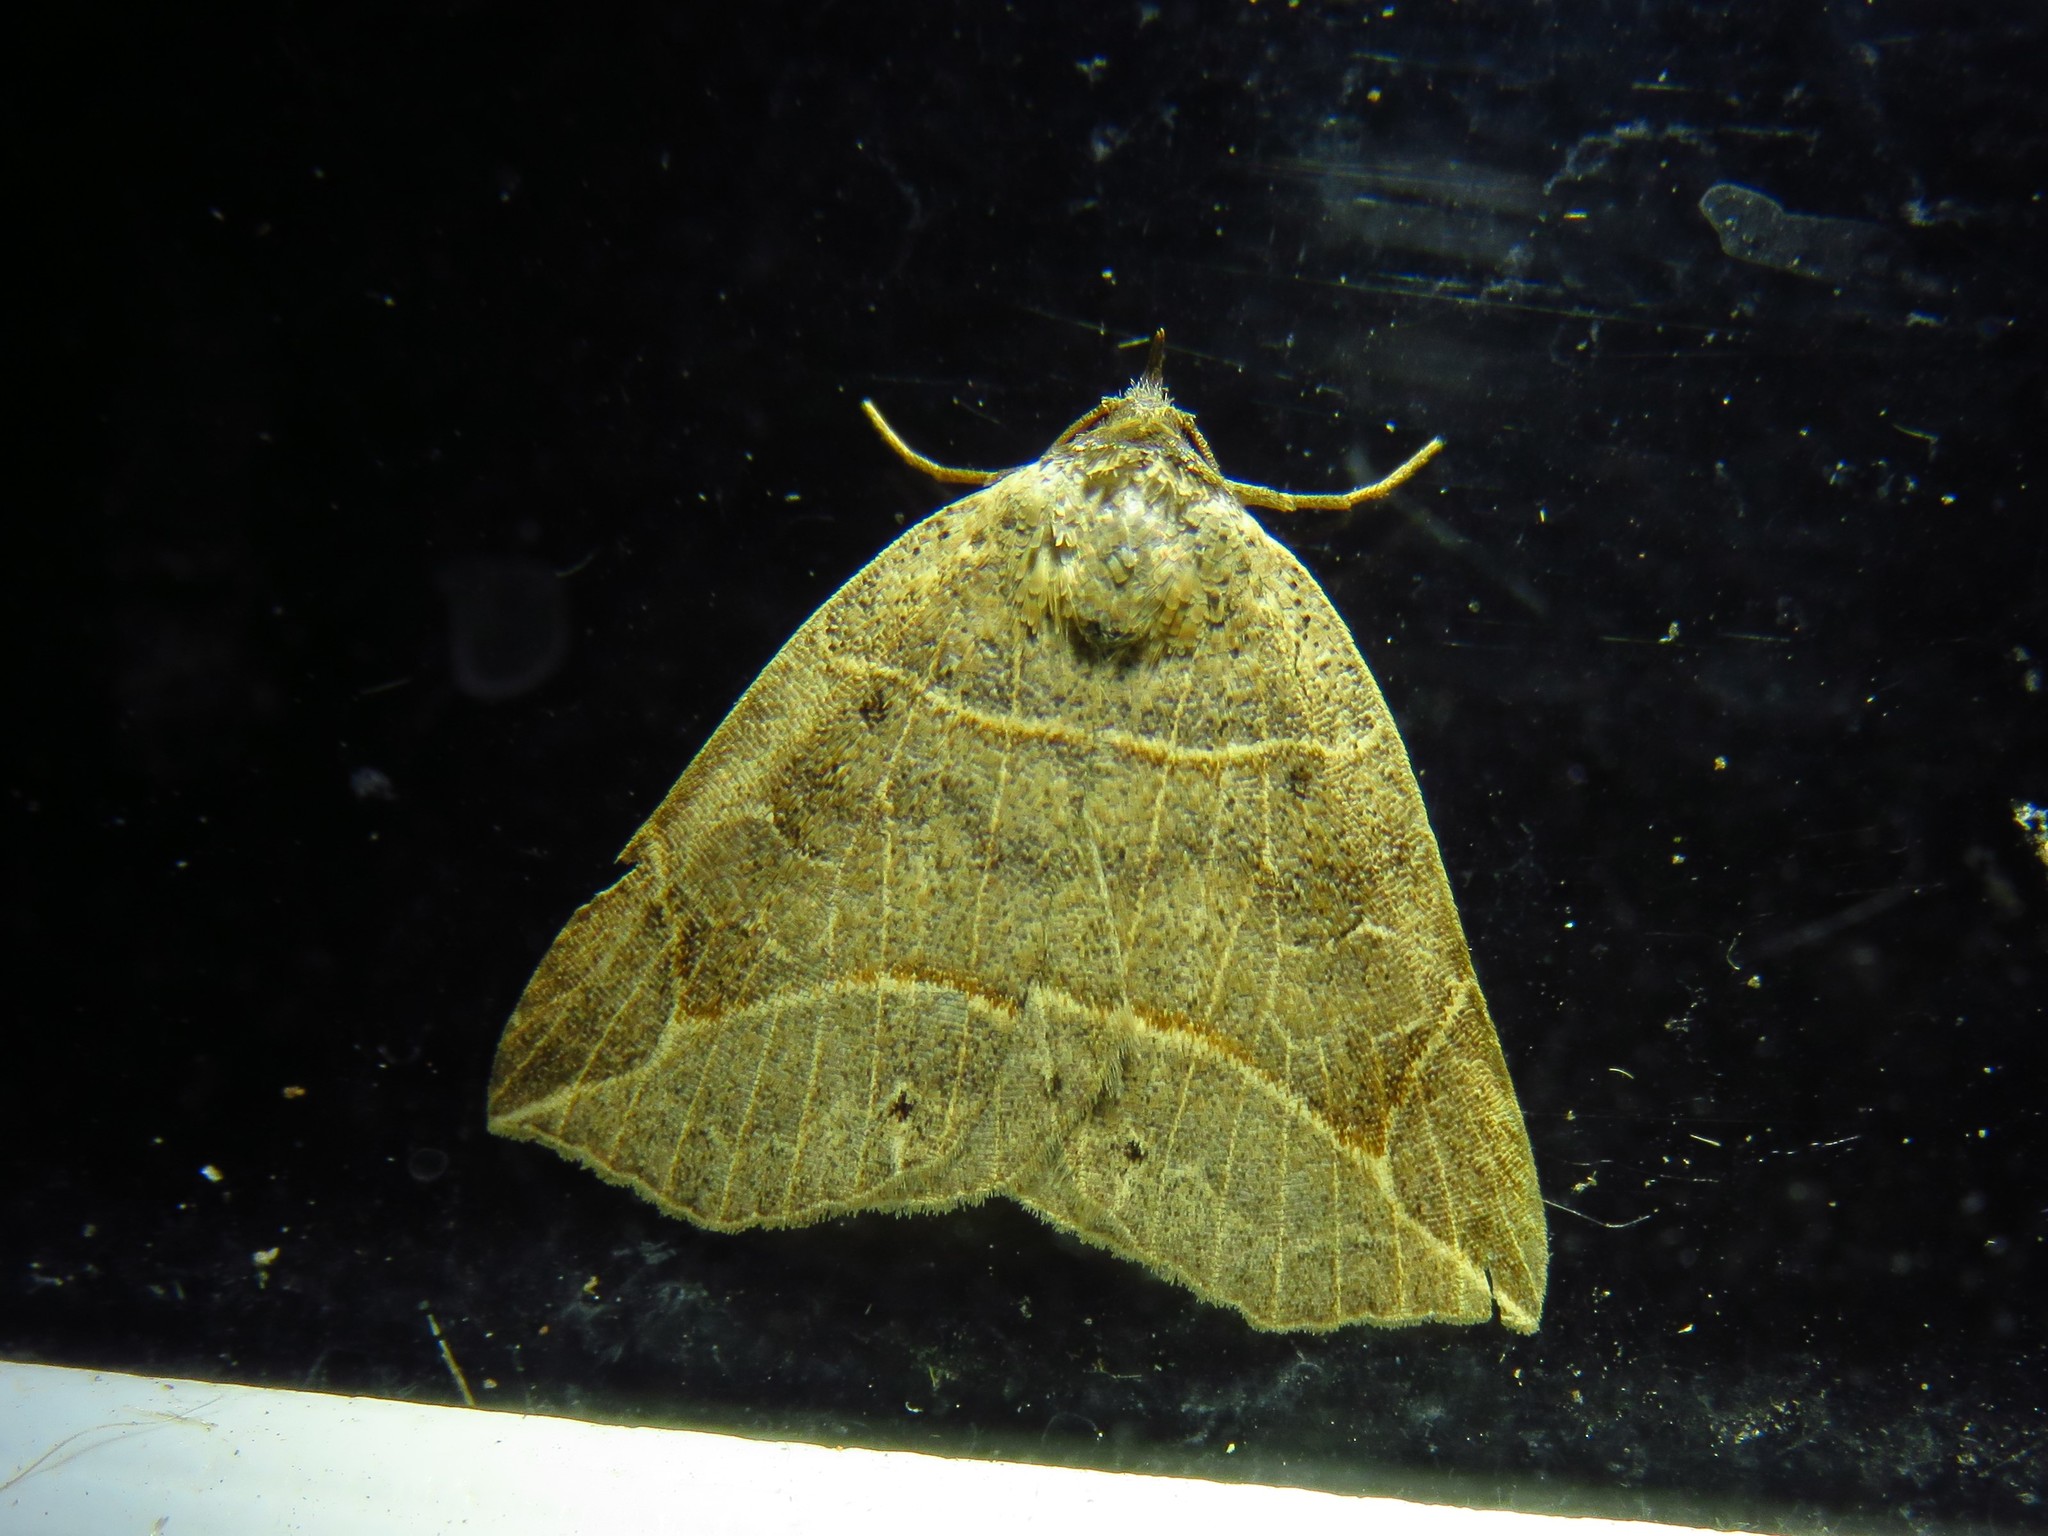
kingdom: Animalia
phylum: Arthropoda
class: Insecta
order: Lepidoptera
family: Erebidae
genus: Isogona
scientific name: Isogona tenuis
